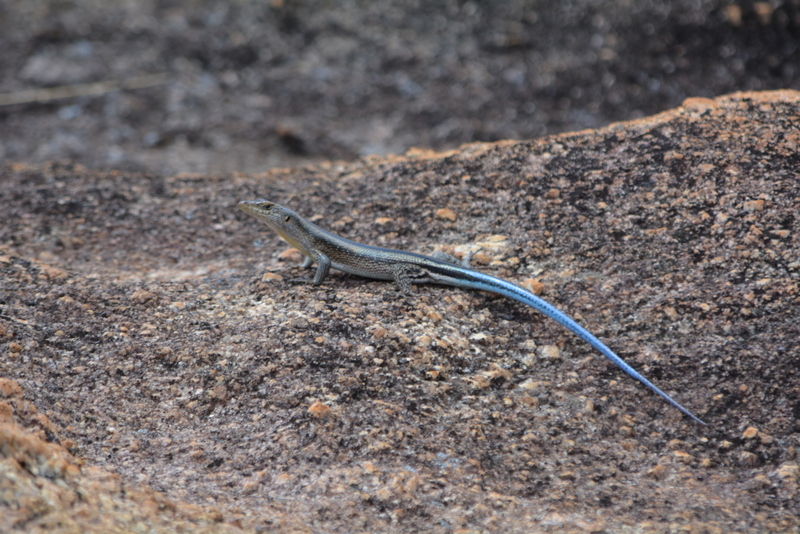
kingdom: Animalia
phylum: Chordata
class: Squamata
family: Scincidae
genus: Trachylepis
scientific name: Trachylepis margaritifera
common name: Rainbow skink
